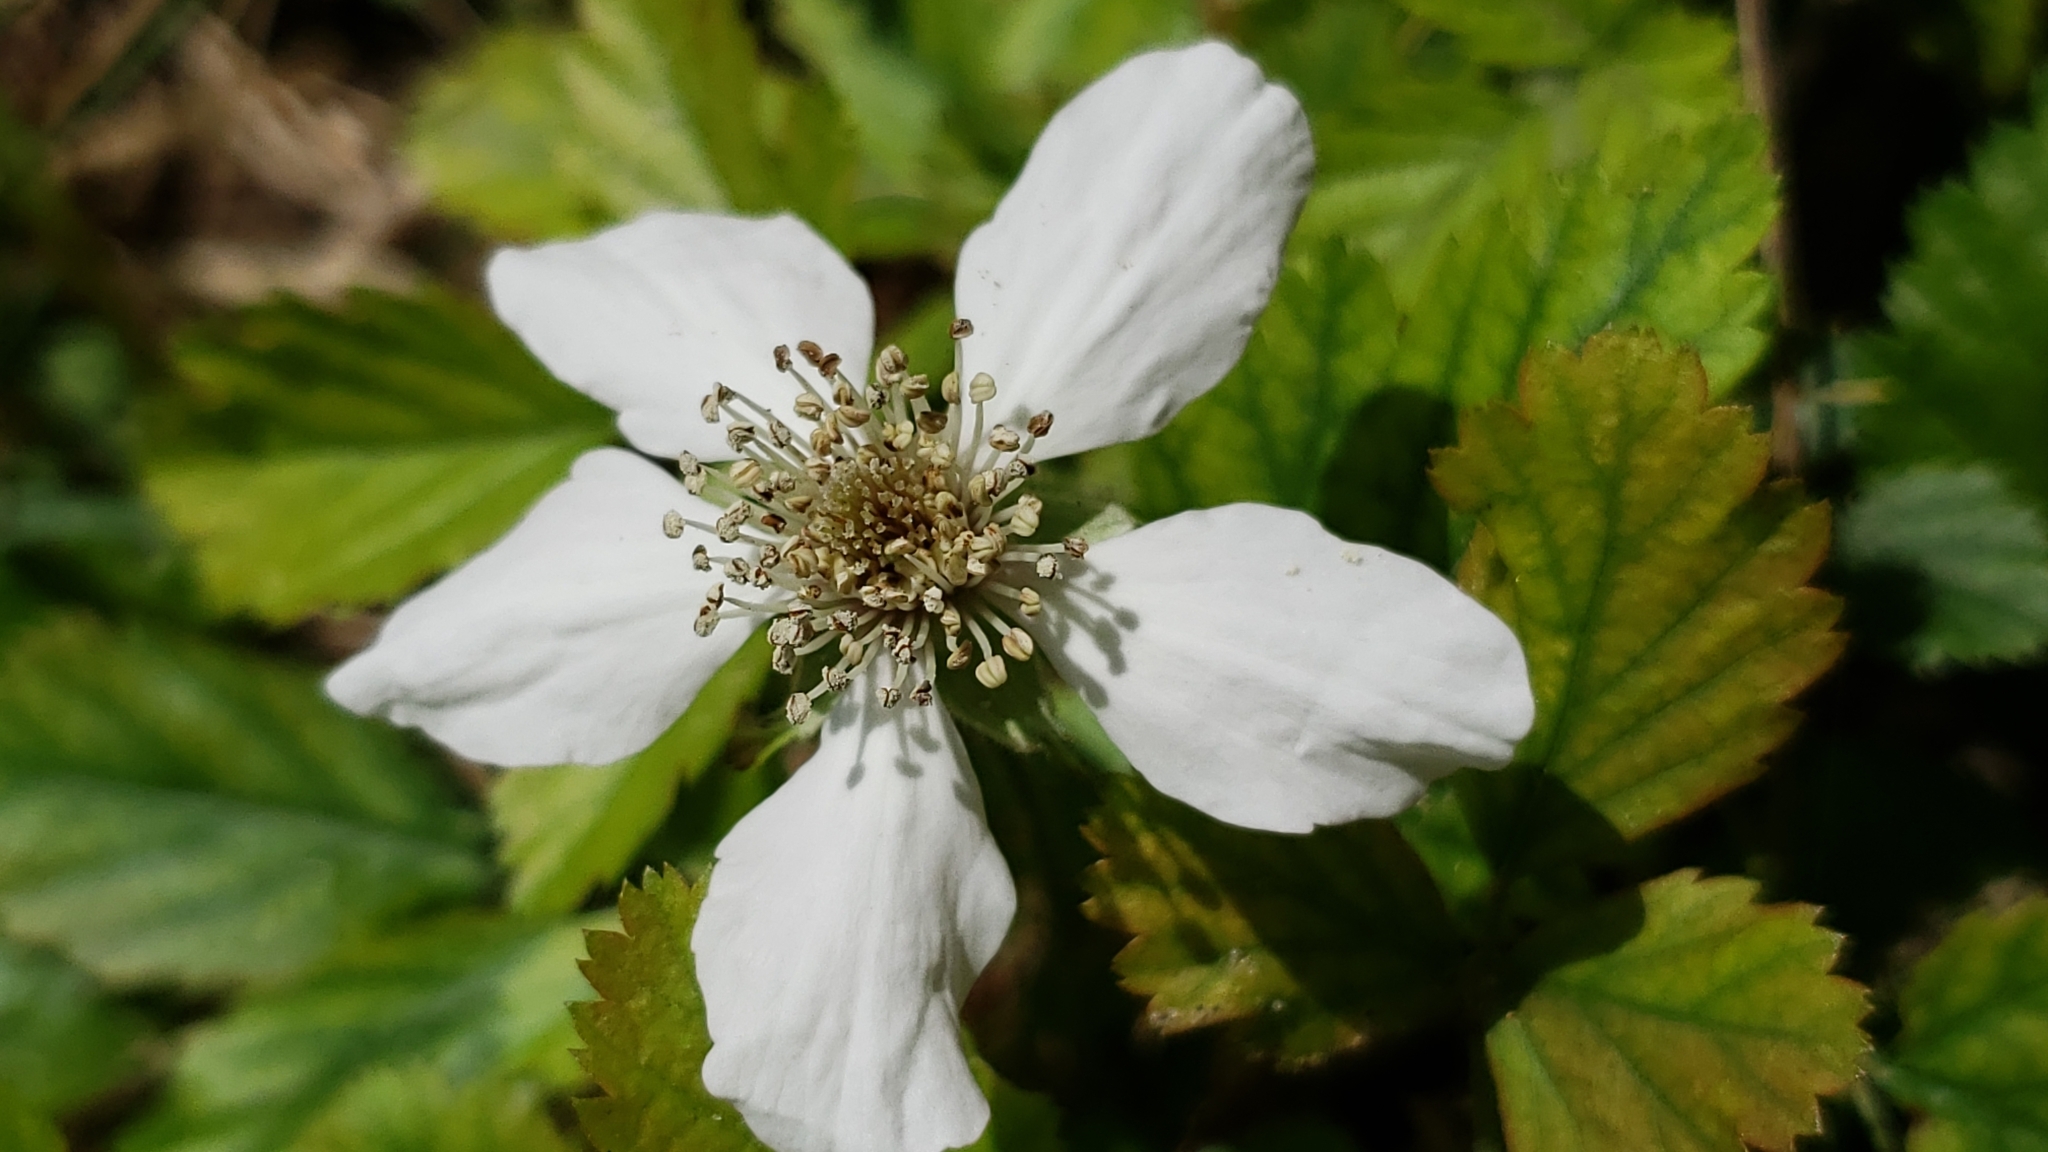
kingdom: Plantae
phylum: Tracheophyta
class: Magnoliopsida
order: Rosales
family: Rosaceae
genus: Rubus
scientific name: Rubus trivialis
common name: Southern dewberry
